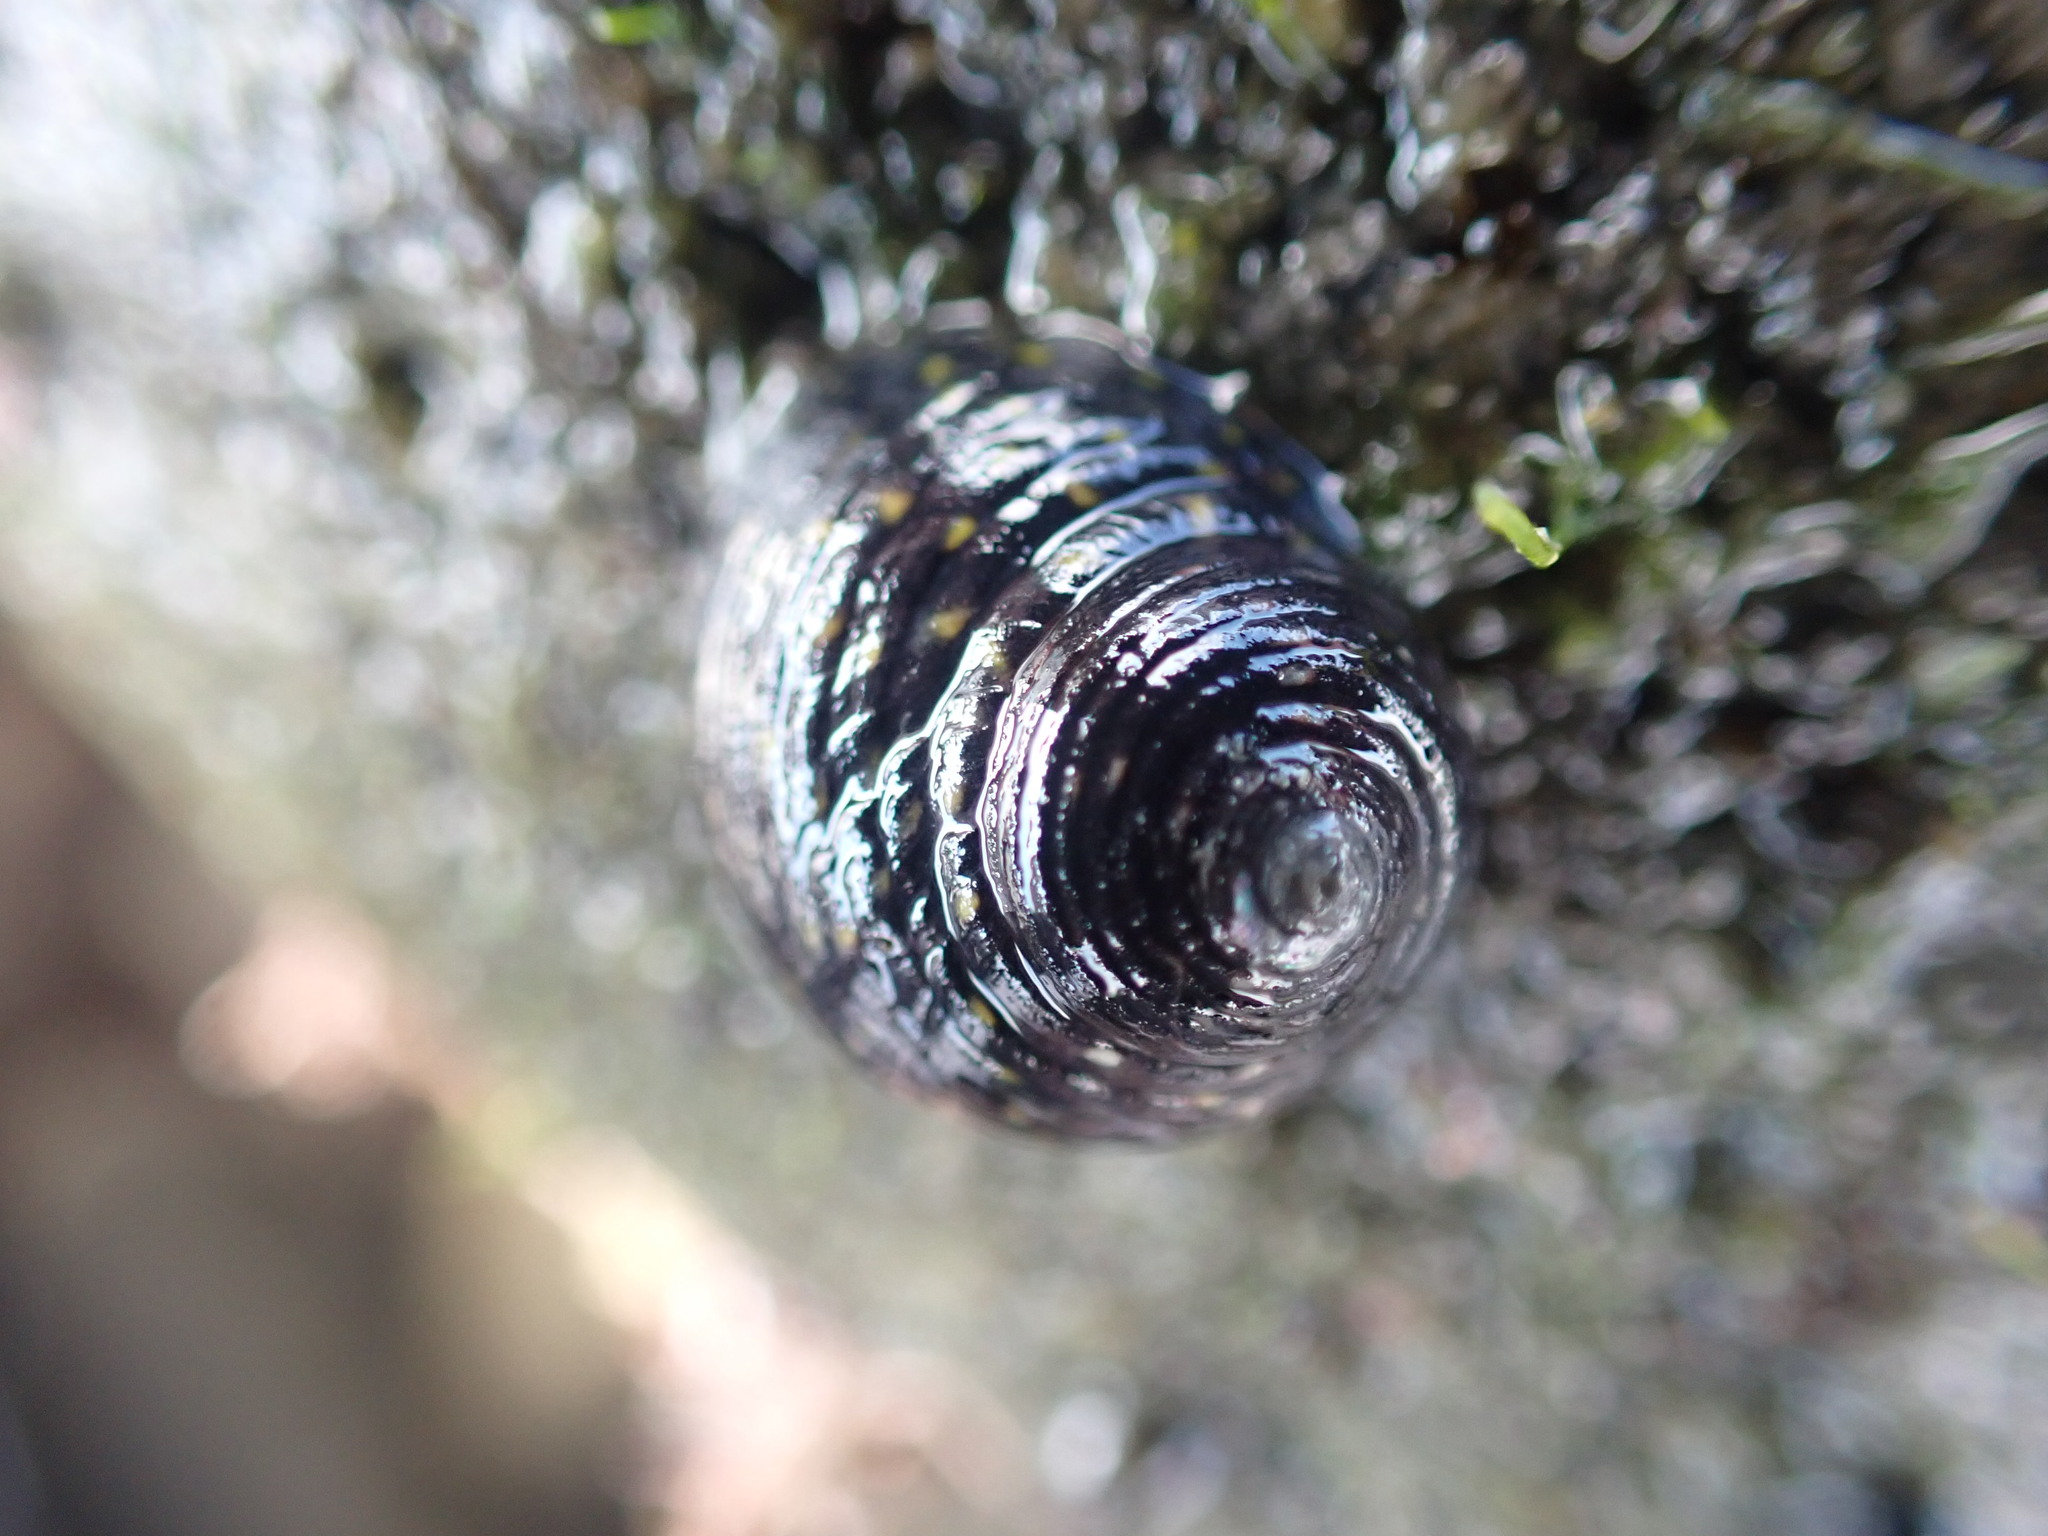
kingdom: Animalia
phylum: Mollusca
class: Gastropoda
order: Trochida
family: Trochidae
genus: Diloma
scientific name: Diloma aridum
